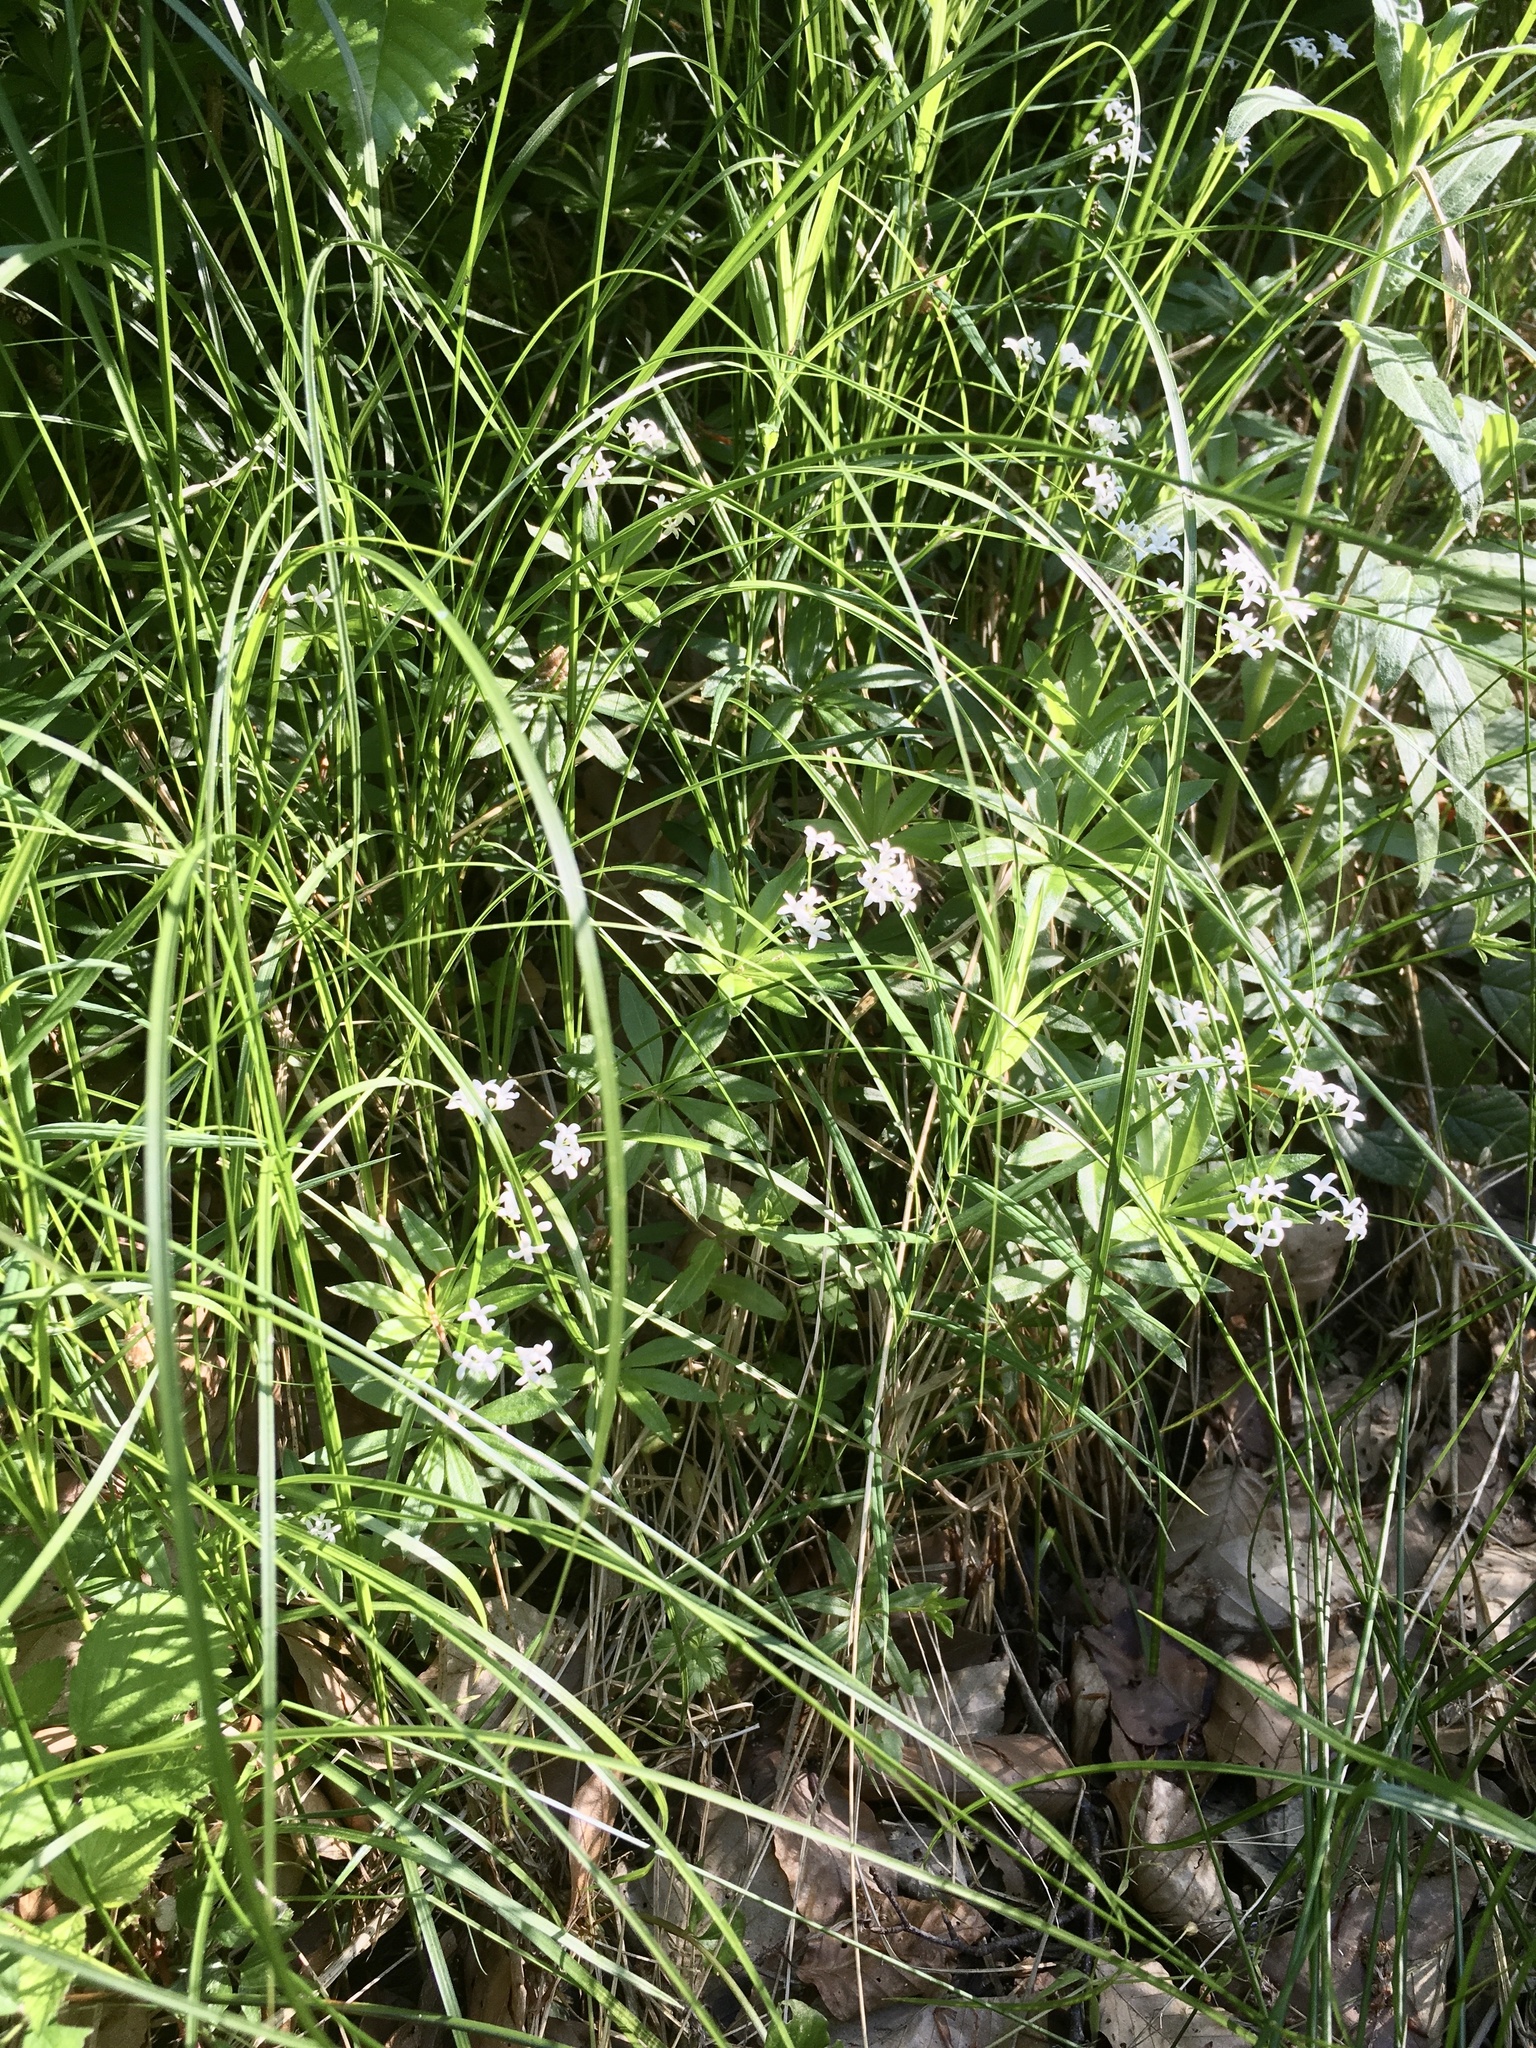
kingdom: Plantae
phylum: Tracheophyta
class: Magnoliopsida
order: Gentianales
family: Rubiaceae
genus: Galium
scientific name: Galium odoratum
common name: Sweet woodruff
